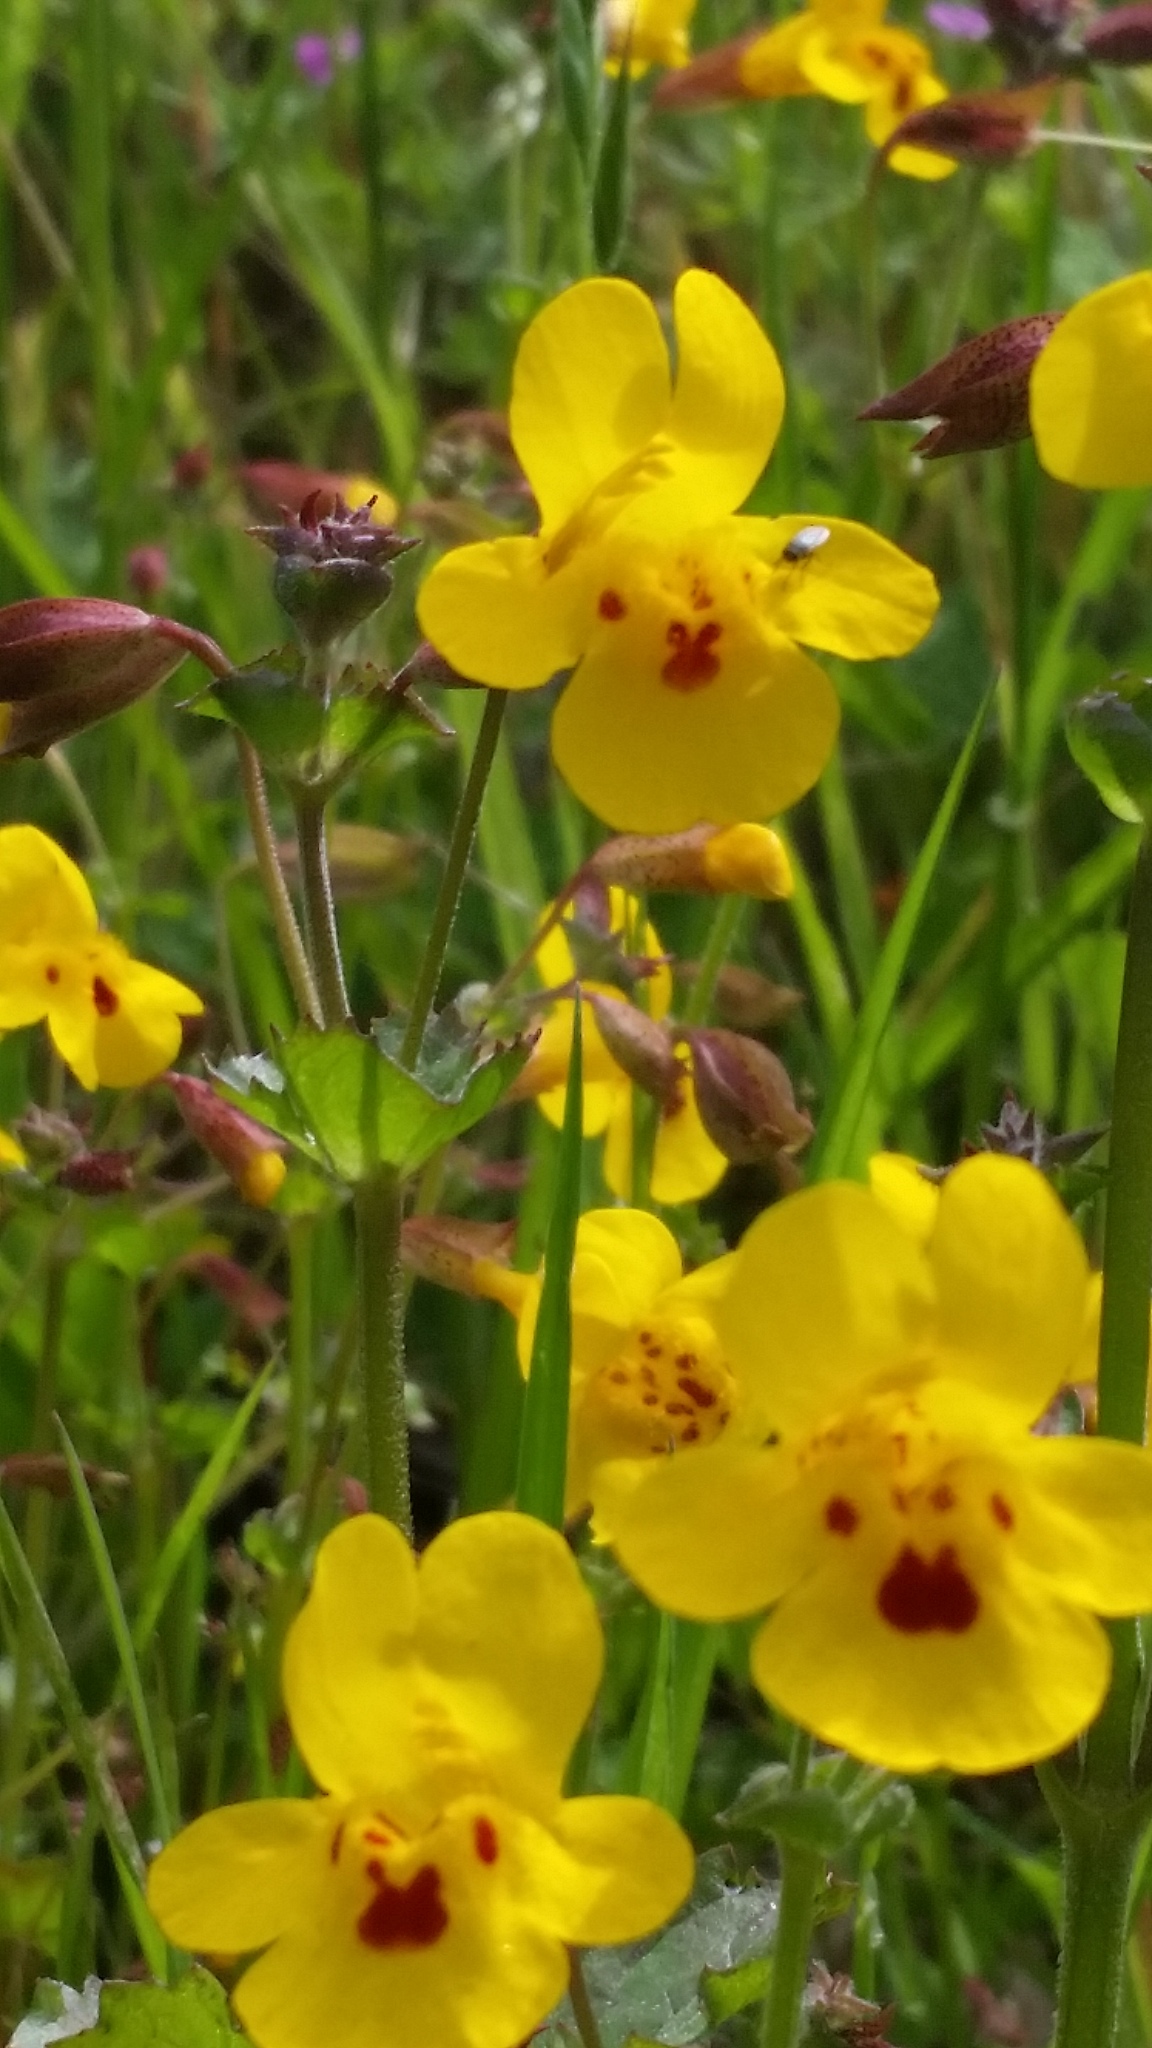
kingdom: Plantae
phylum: Tracheophyta
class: Magnoliopsida
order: Lamiales
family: Phrymaceae
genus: Erythranthe
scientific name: Erythranthe guttata
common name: Monkeyflower
